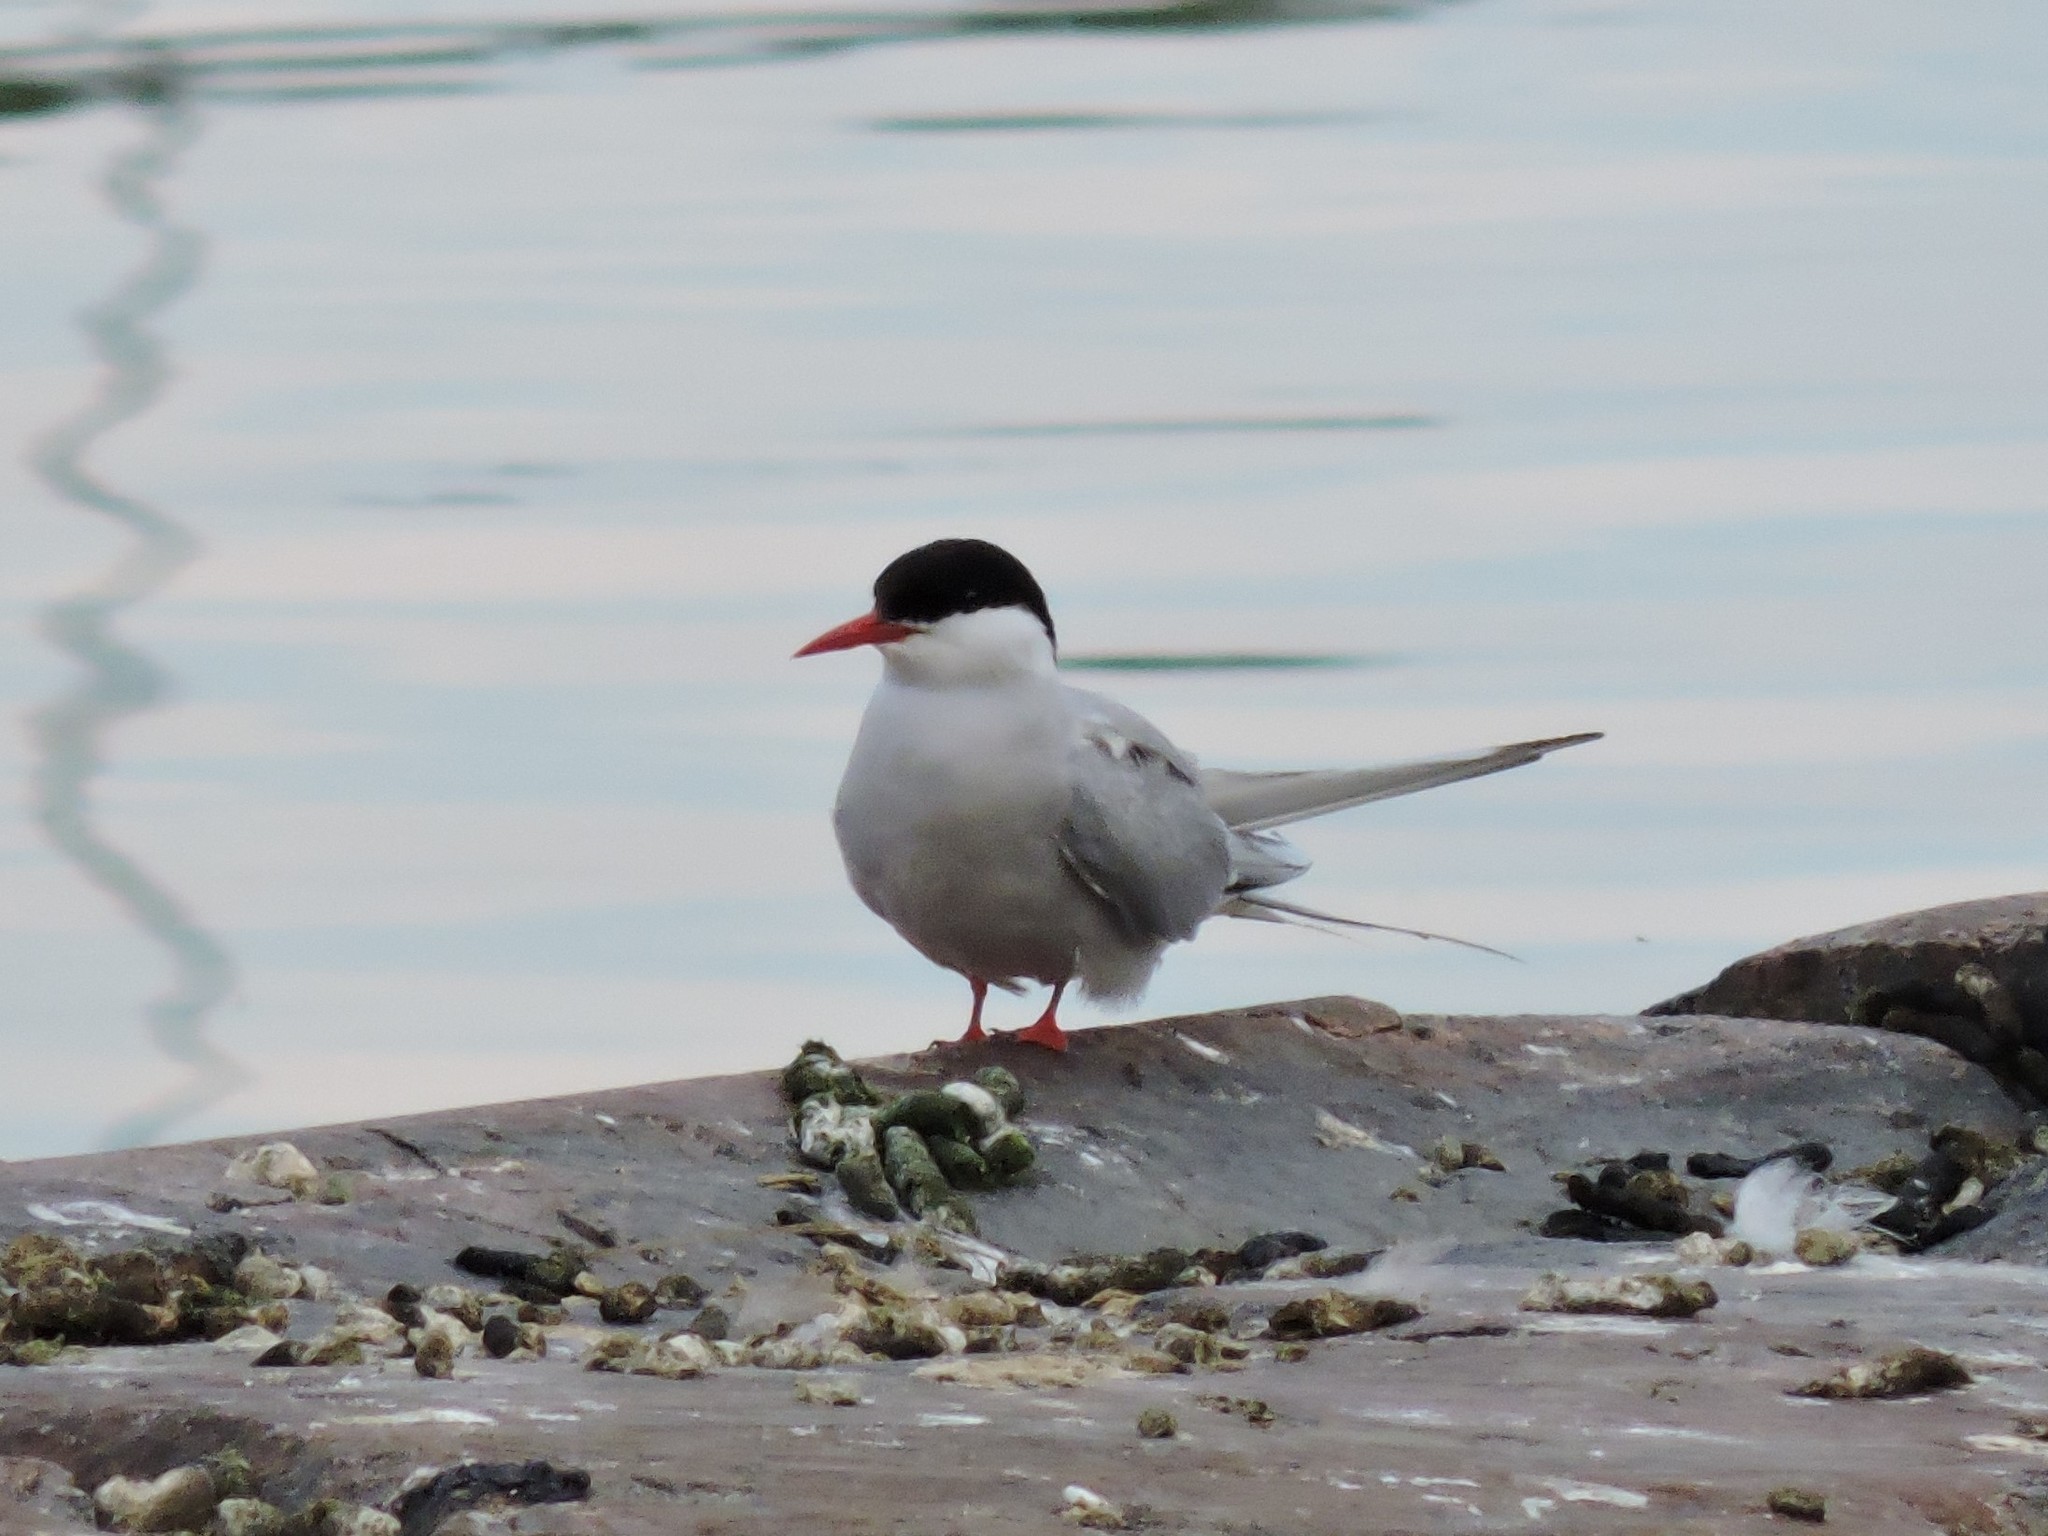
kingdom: Animalia
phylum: Chordata
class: Aves
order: Charadriiformes
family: Laridae
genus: Sterna
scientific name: Sterna paradisaea
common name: Arctic tern
